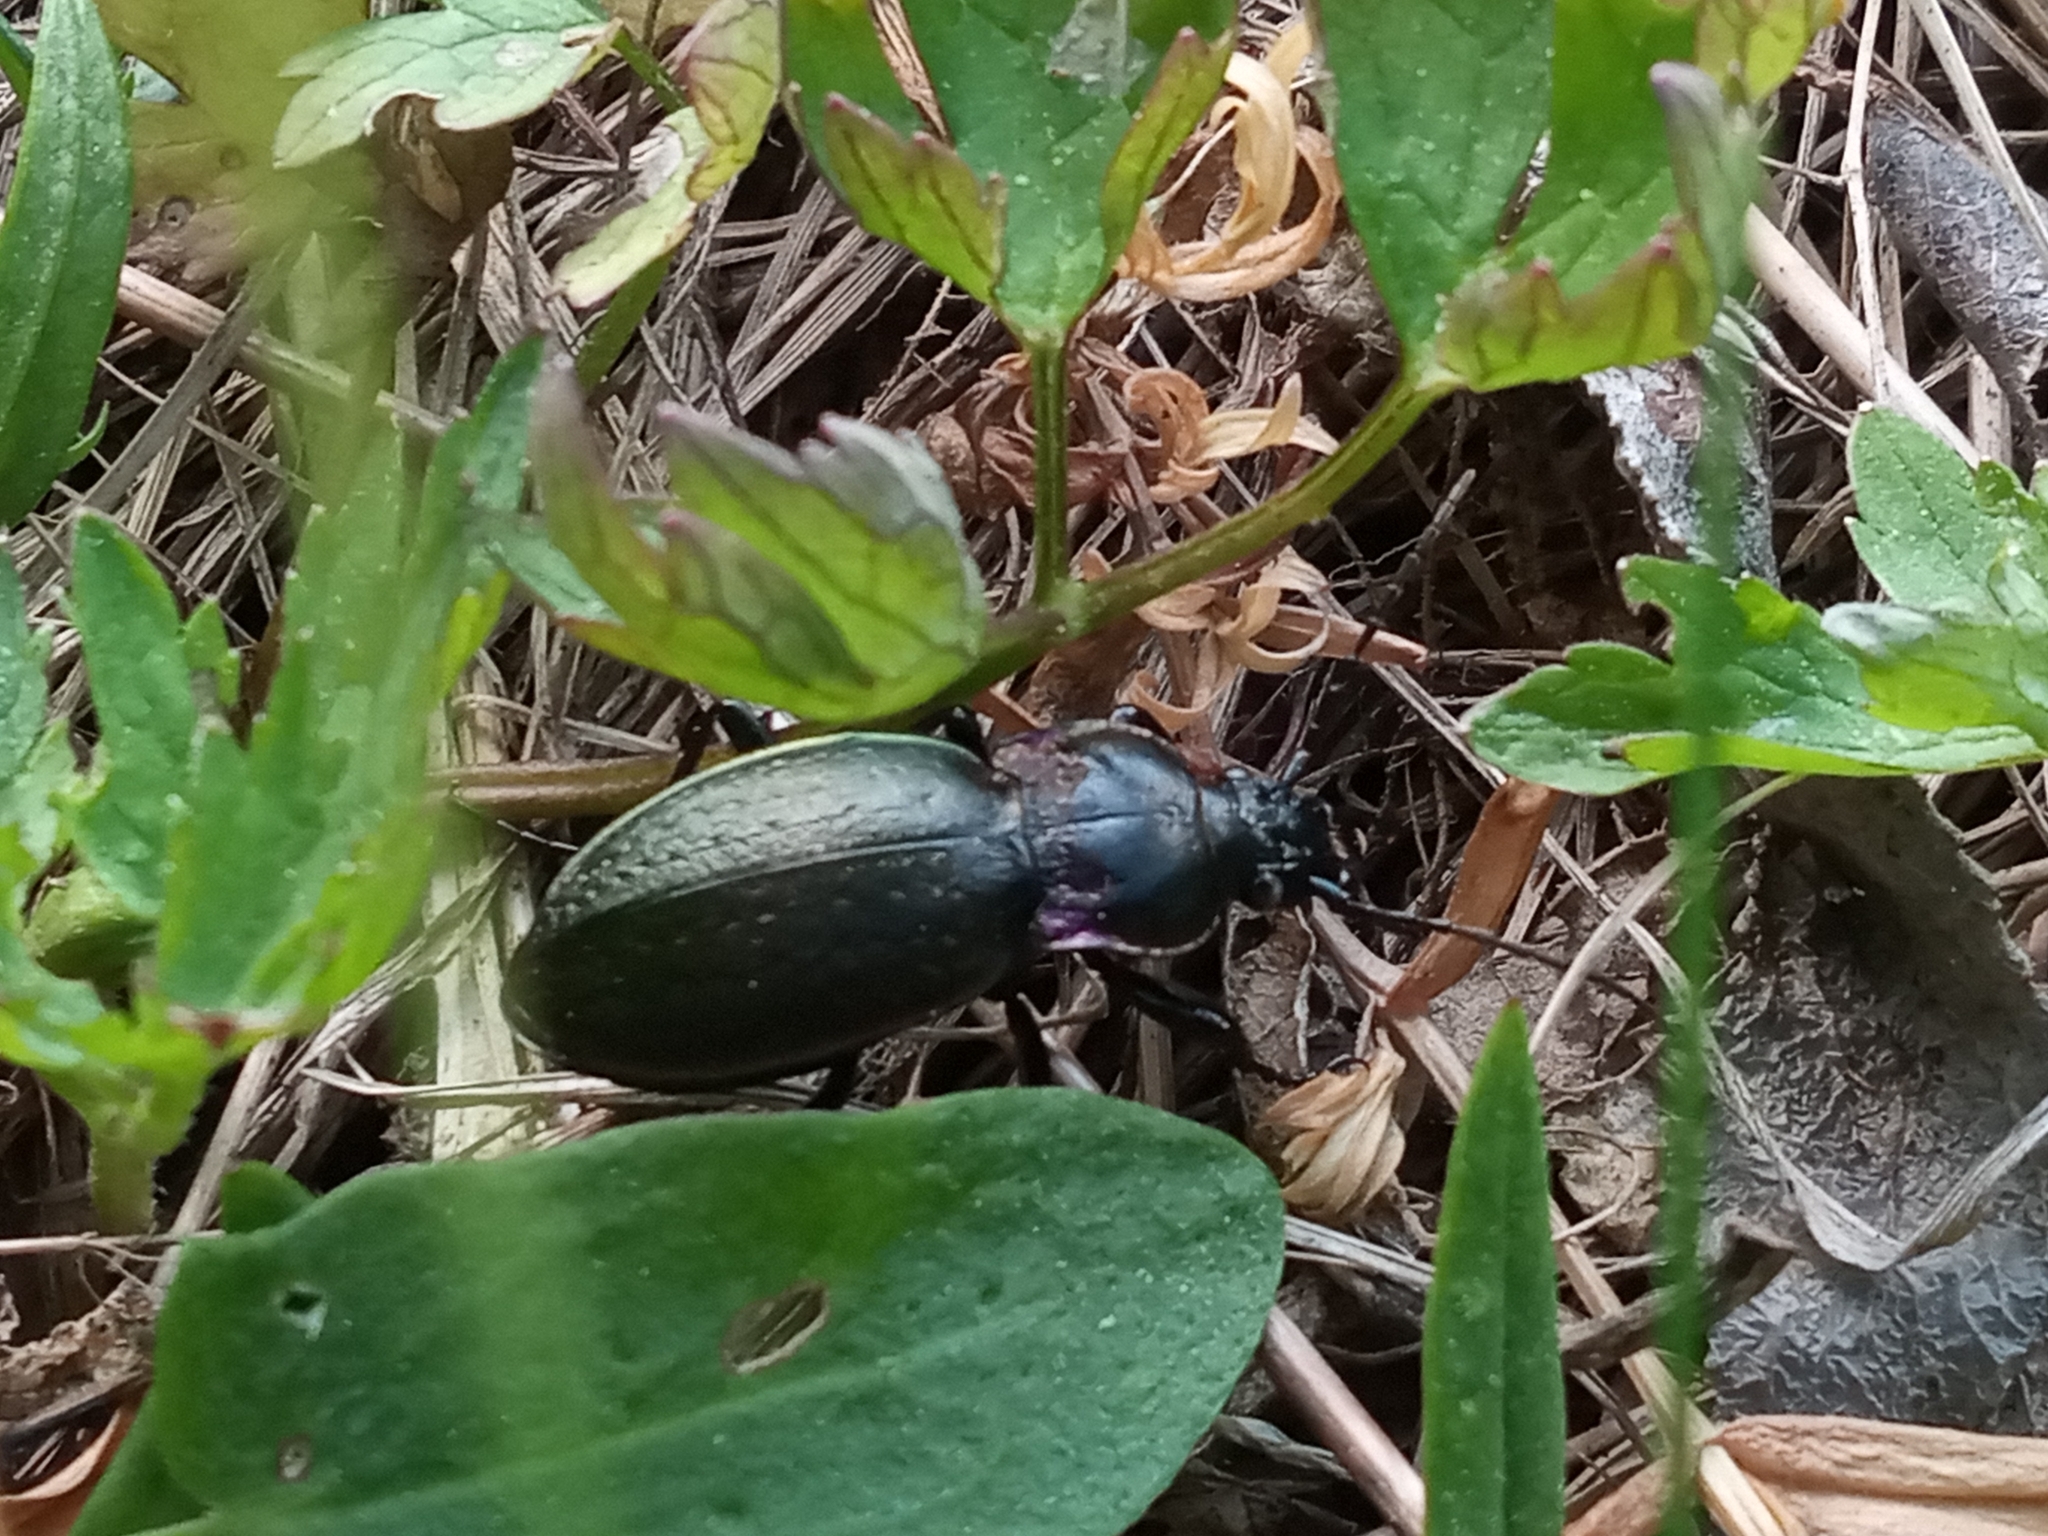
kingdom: Animalia
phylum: Arthropoda
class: Insecta
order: Coleoptera
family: Carabidae
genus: Carabus
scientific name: Carabus nemoralis
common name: European ground beetle
